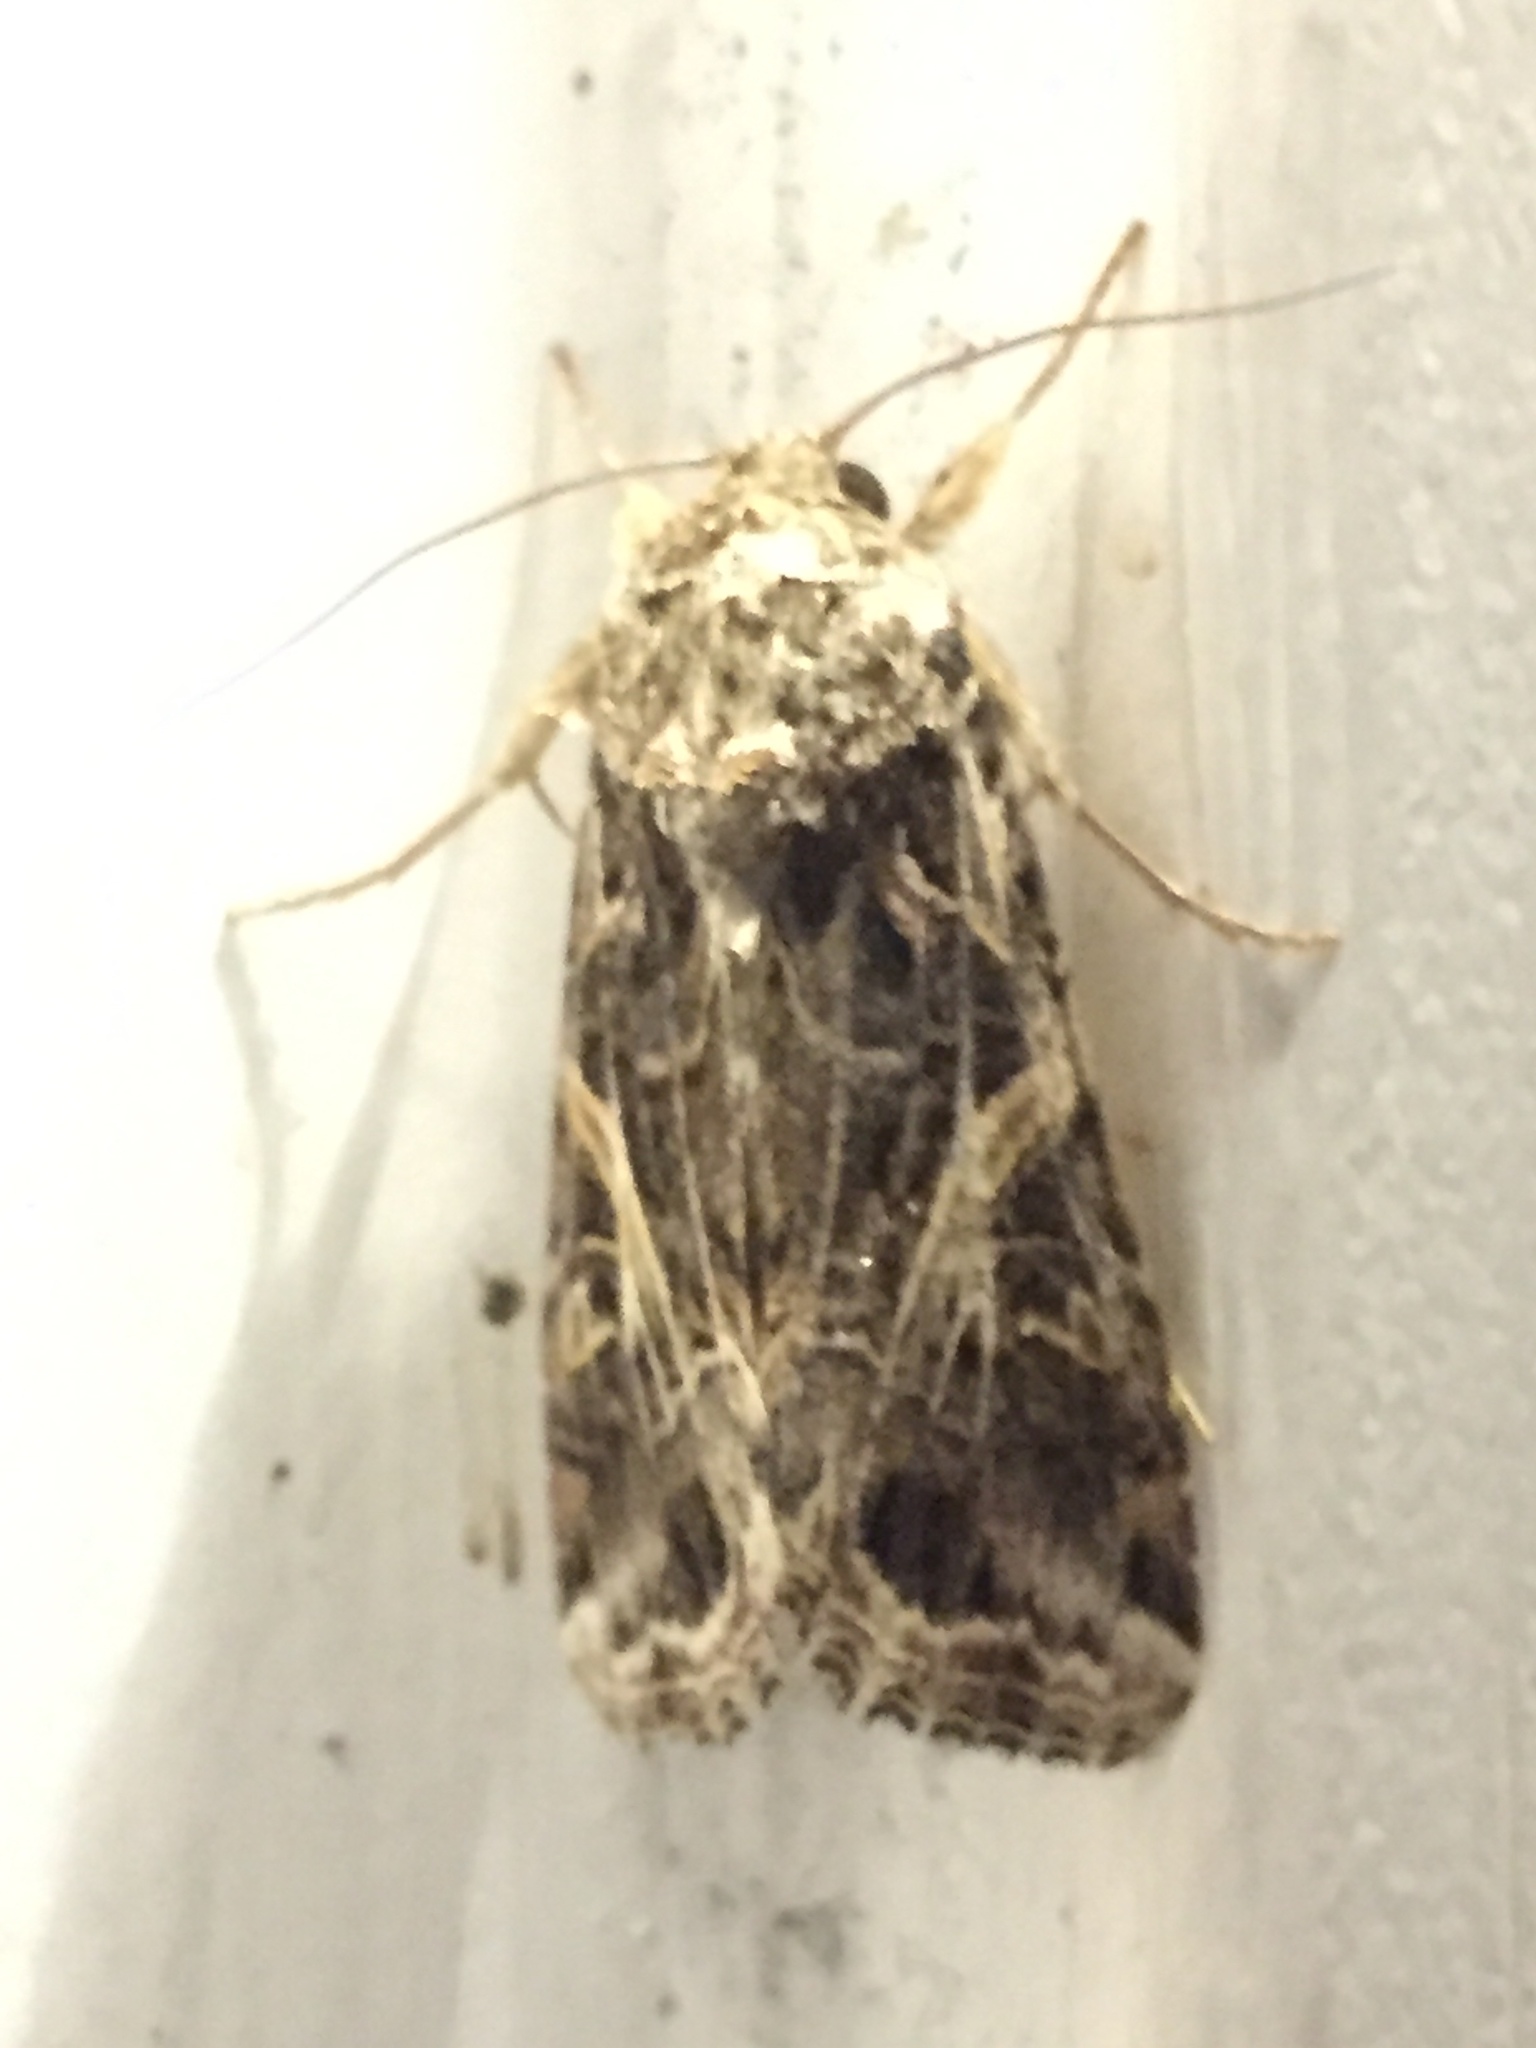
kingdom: Animalia
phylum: Arthropoda
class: Insecta
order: Lepidoptera
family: Noctuidae
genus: Spodoptera
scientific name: Spodoptera ornithogalli
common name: Yellow-striped armyworm
